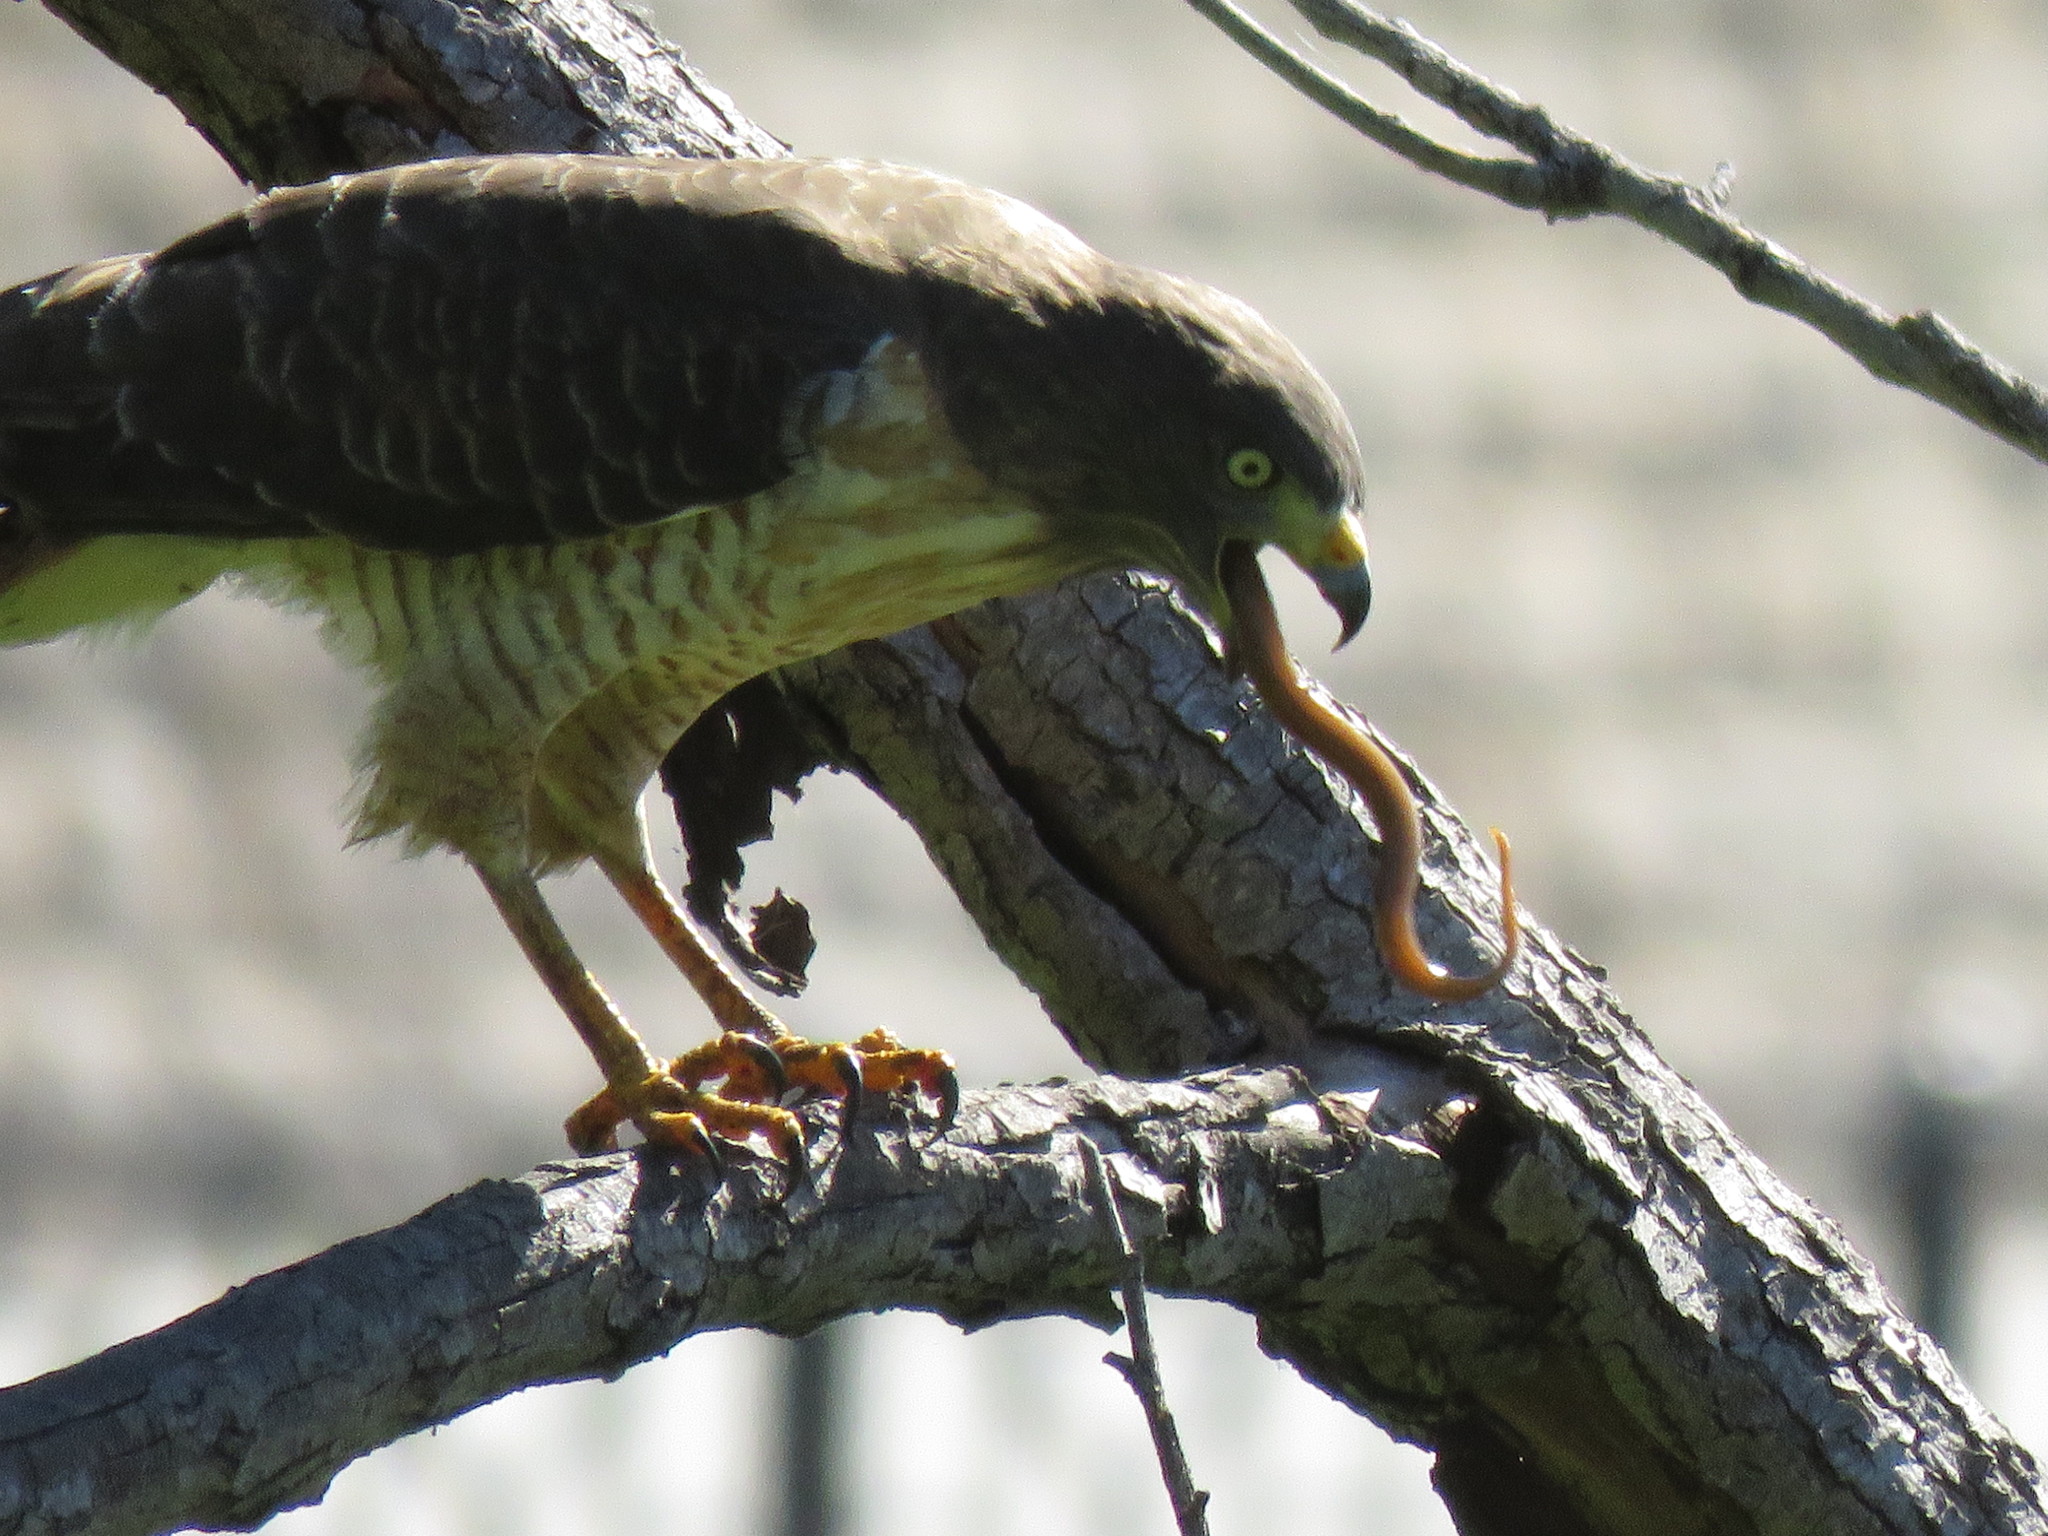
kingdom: Animalia
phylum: Chordata
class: Aves
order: Accipitriformes
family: Accipitridae
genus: Rupornis
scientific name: Rupornis magnirostris
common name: Roadside hawk
